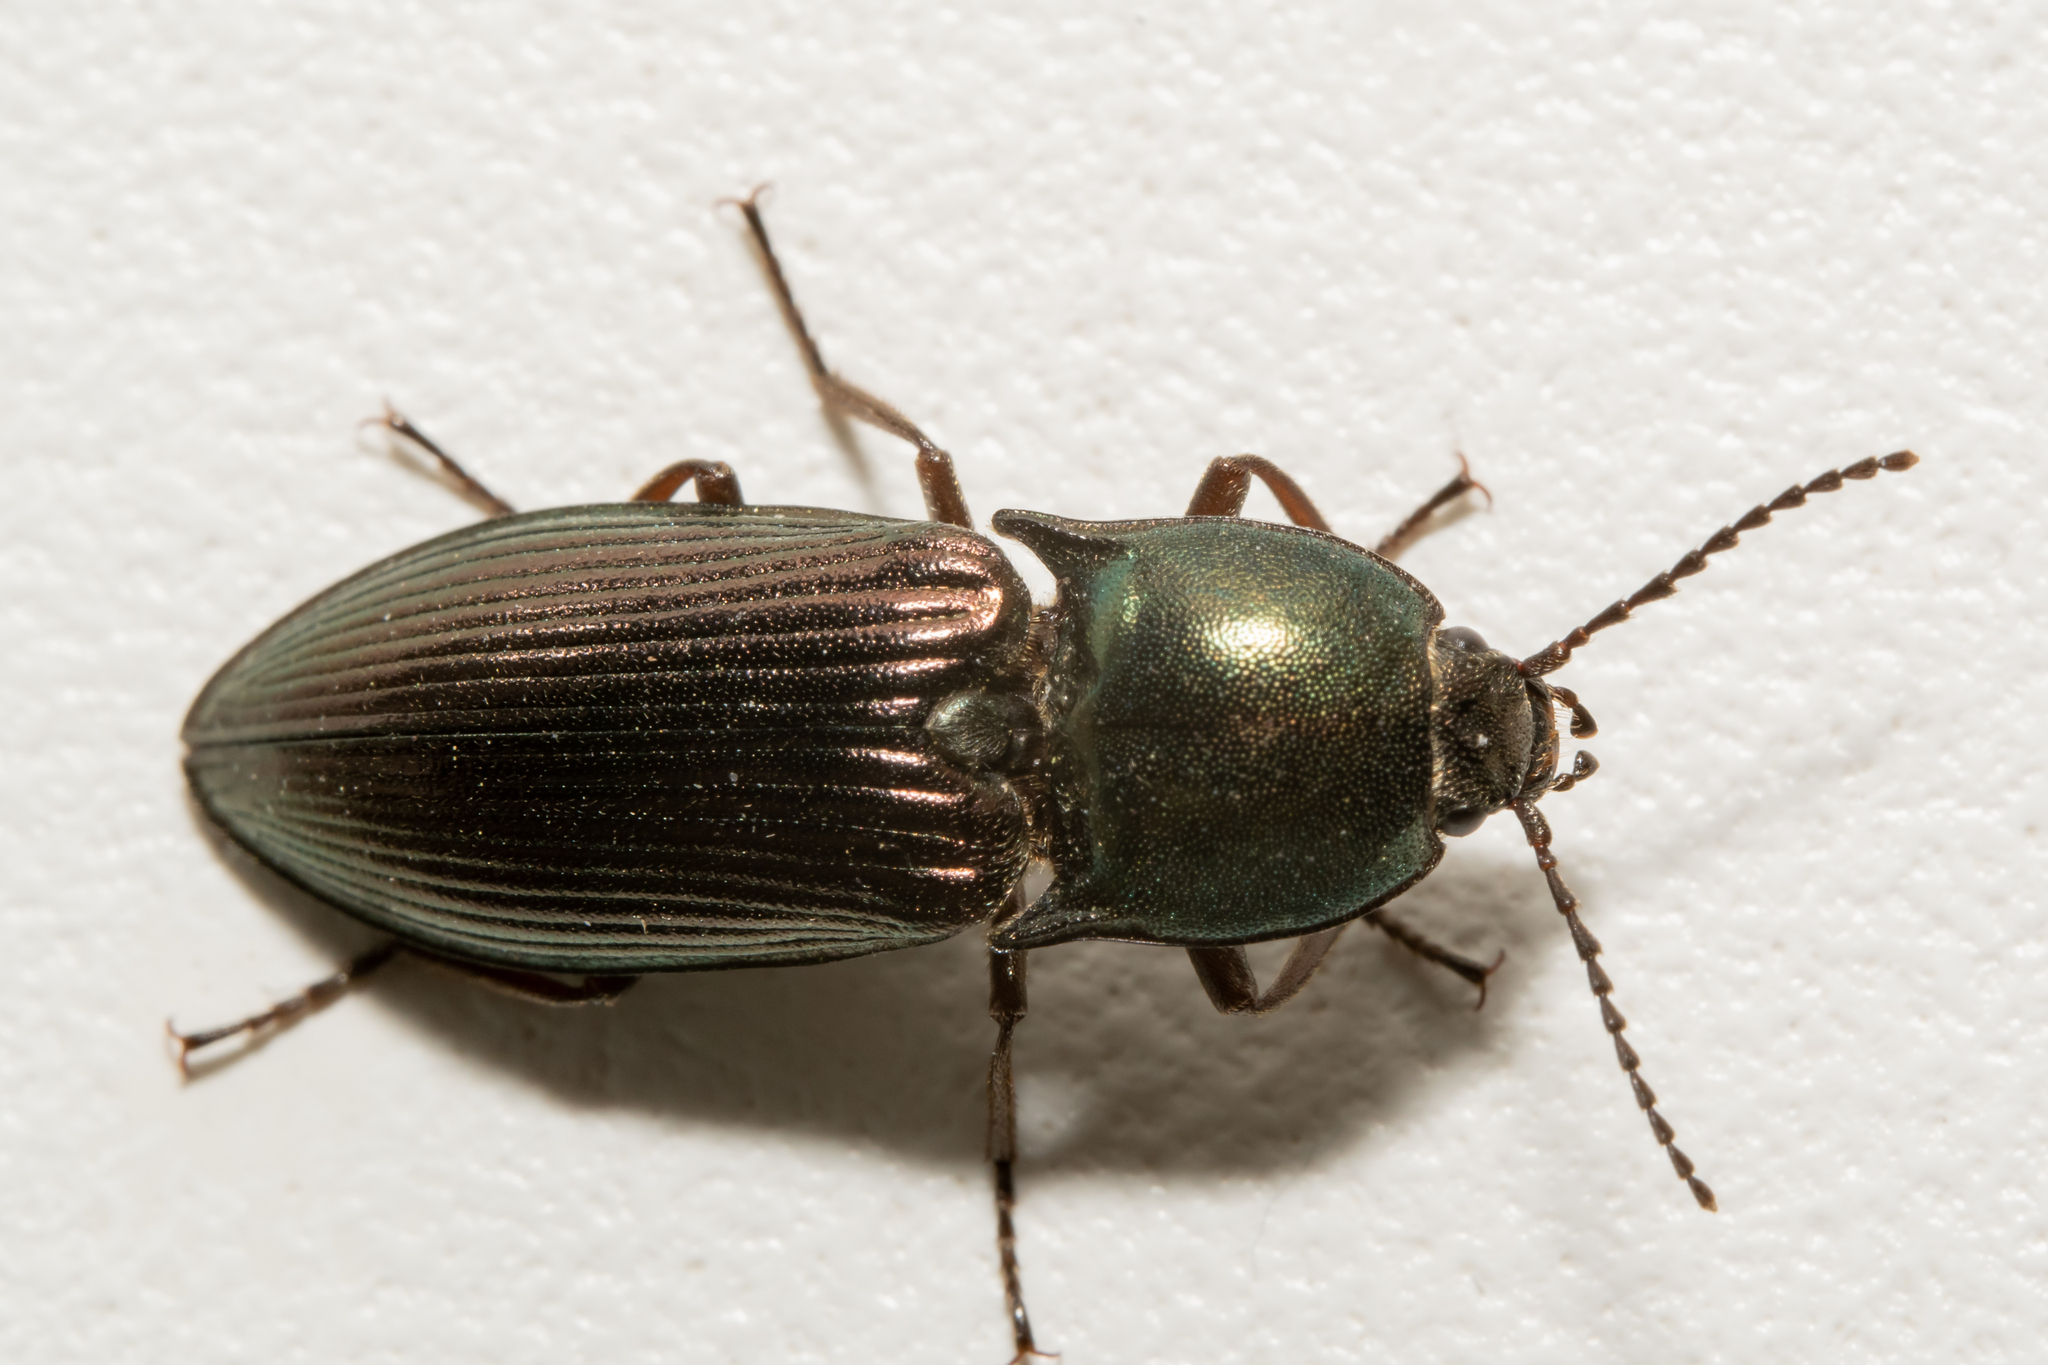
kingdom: Animalia
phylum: Arthropoda
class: Insecta
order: Coleoptera
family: Elateridae
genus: Selatosomus
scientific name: Selatosomus aeneus
